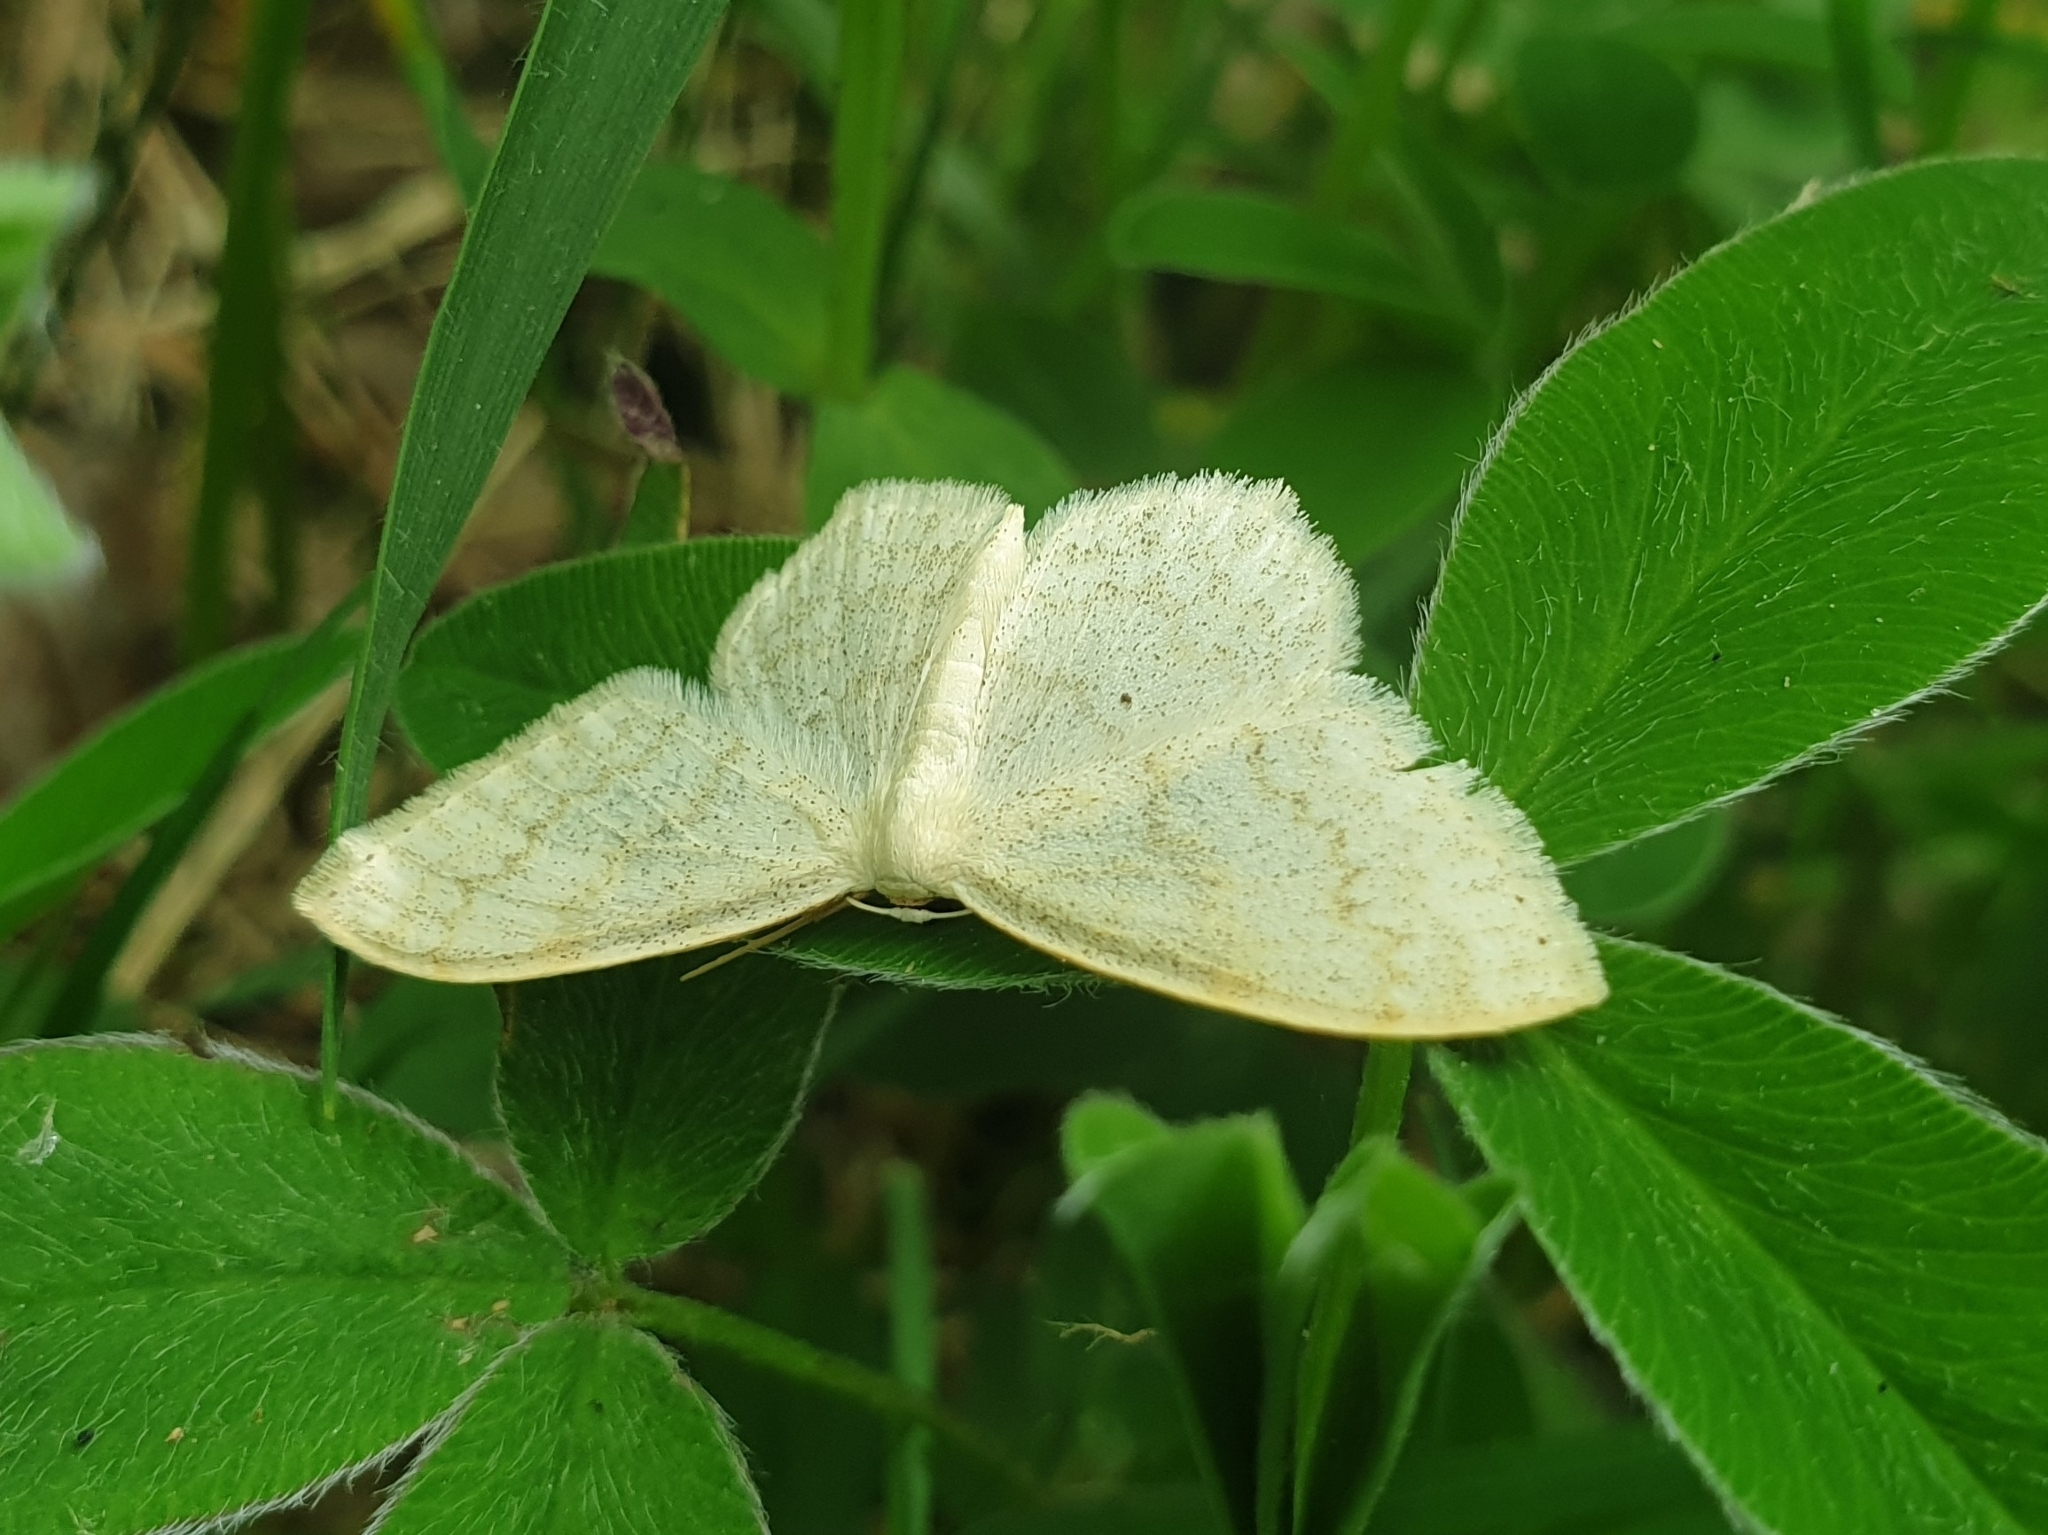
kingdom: Animalia
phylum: Arthropoda
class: Insecta
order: Lepidoptera
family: Geometridae
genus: Scopula
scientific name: Scopula floslactata
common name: Cream wave
